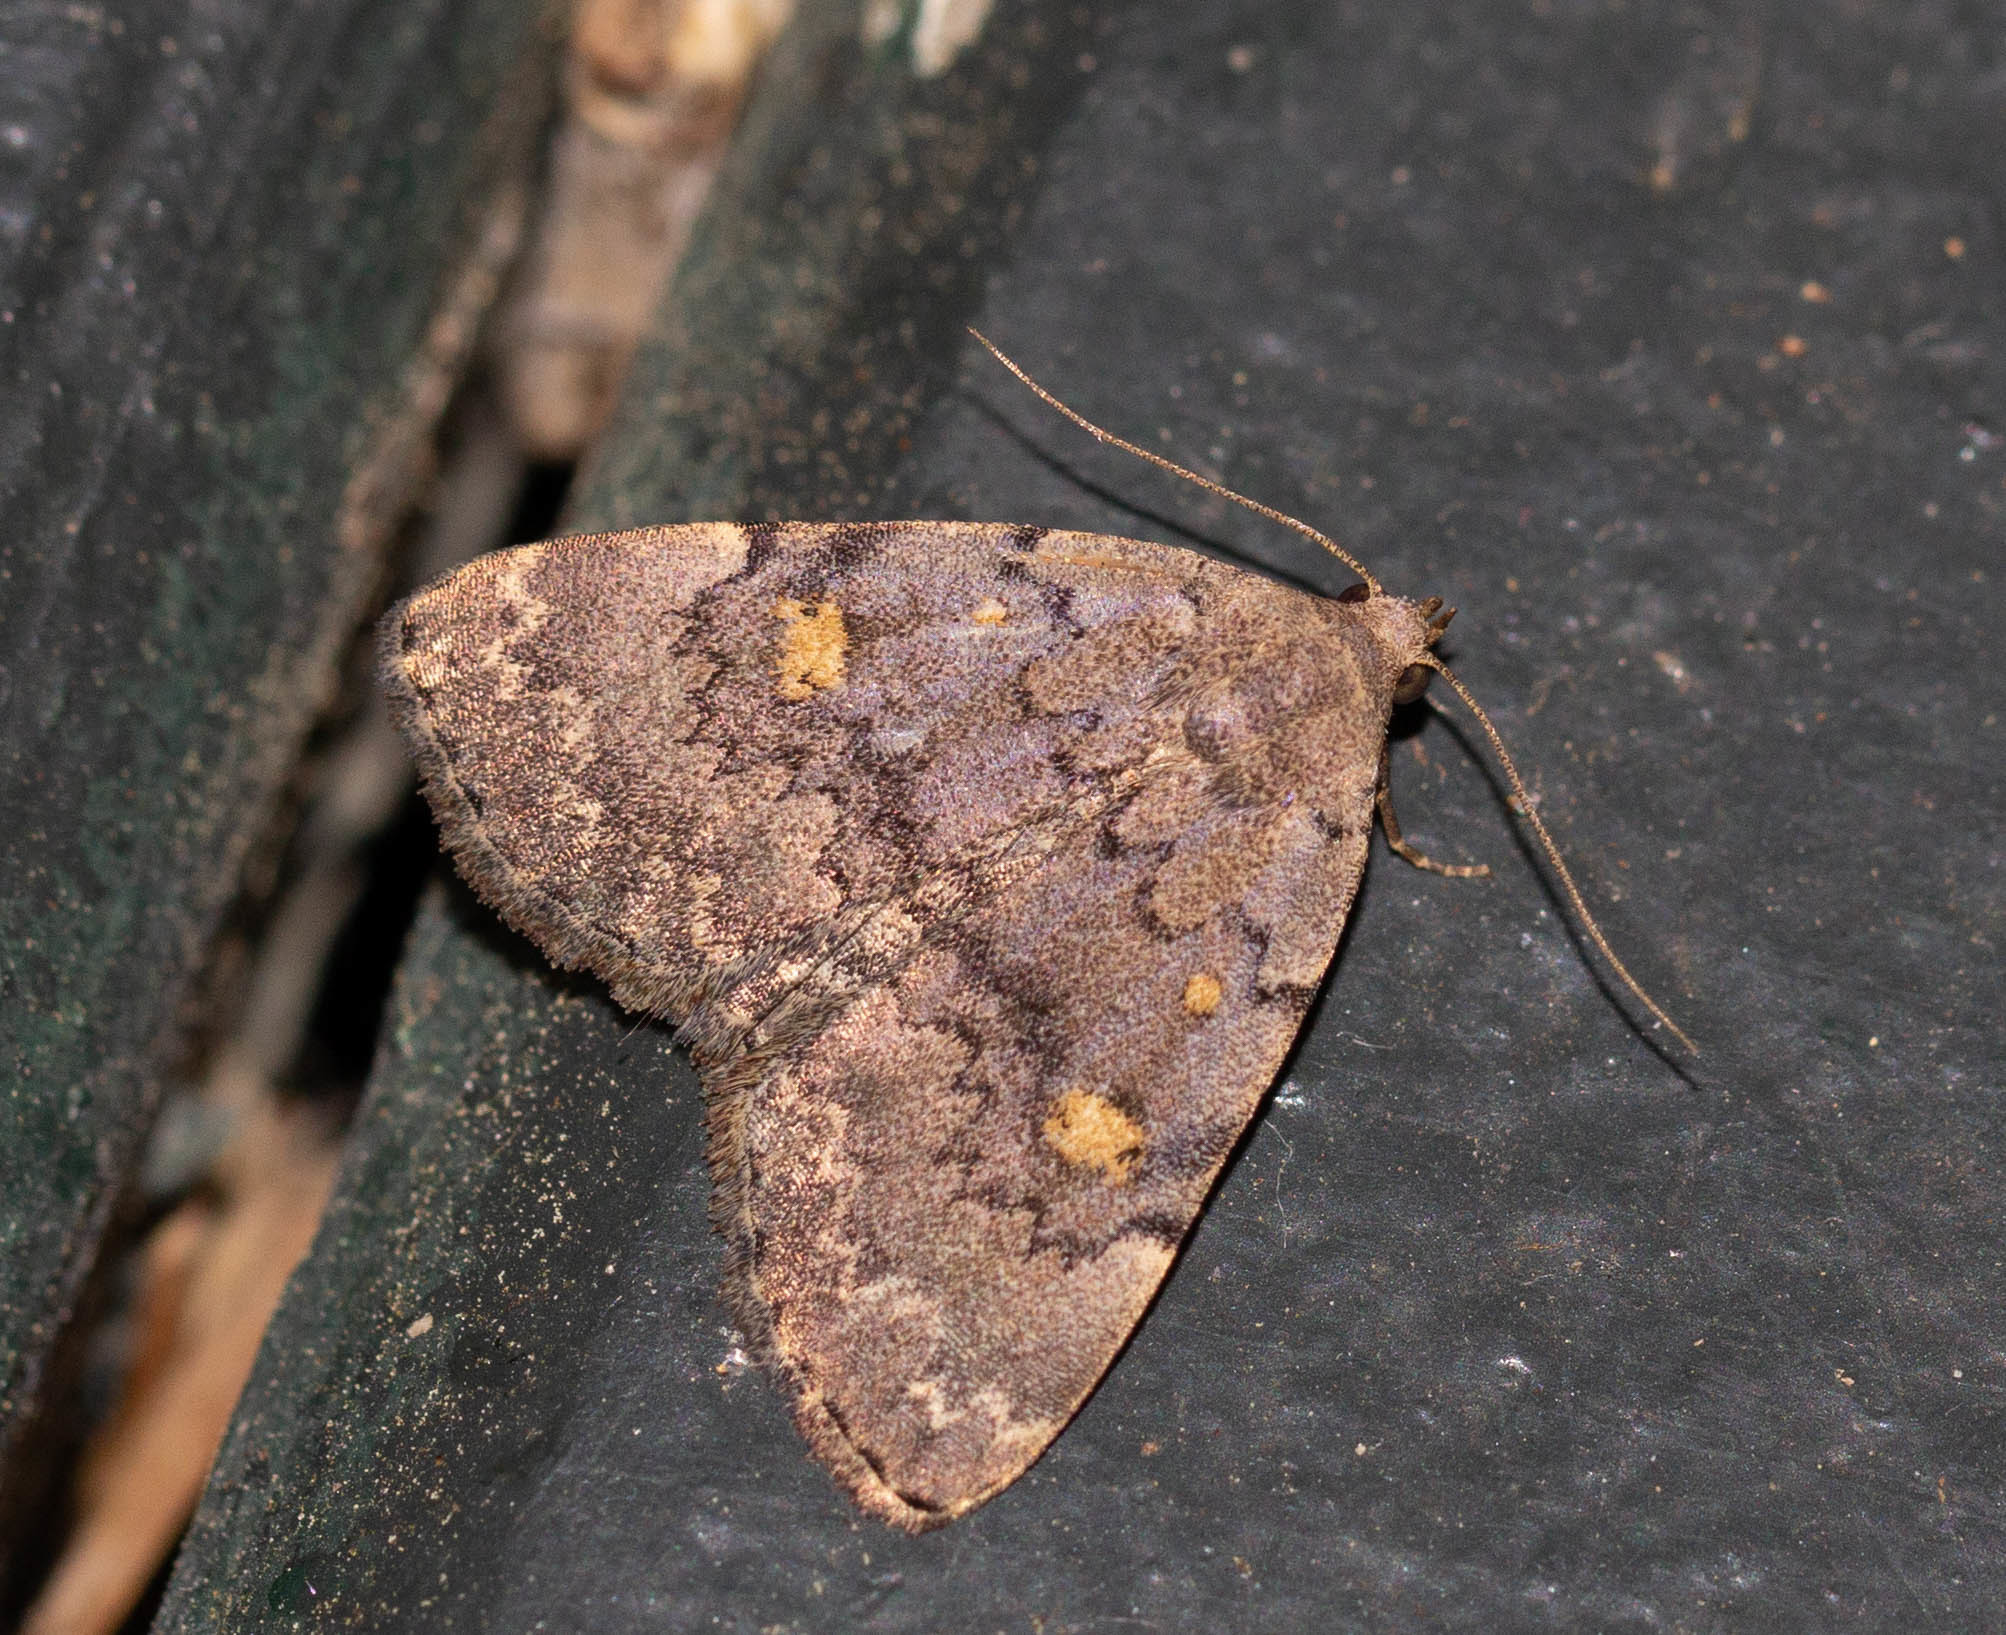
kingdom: Animalia
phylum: Arthropoda
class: Insecta
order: Lepidoptera
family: Erebidae
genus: Idia
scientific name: Idia aemula
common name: Common idia moth
